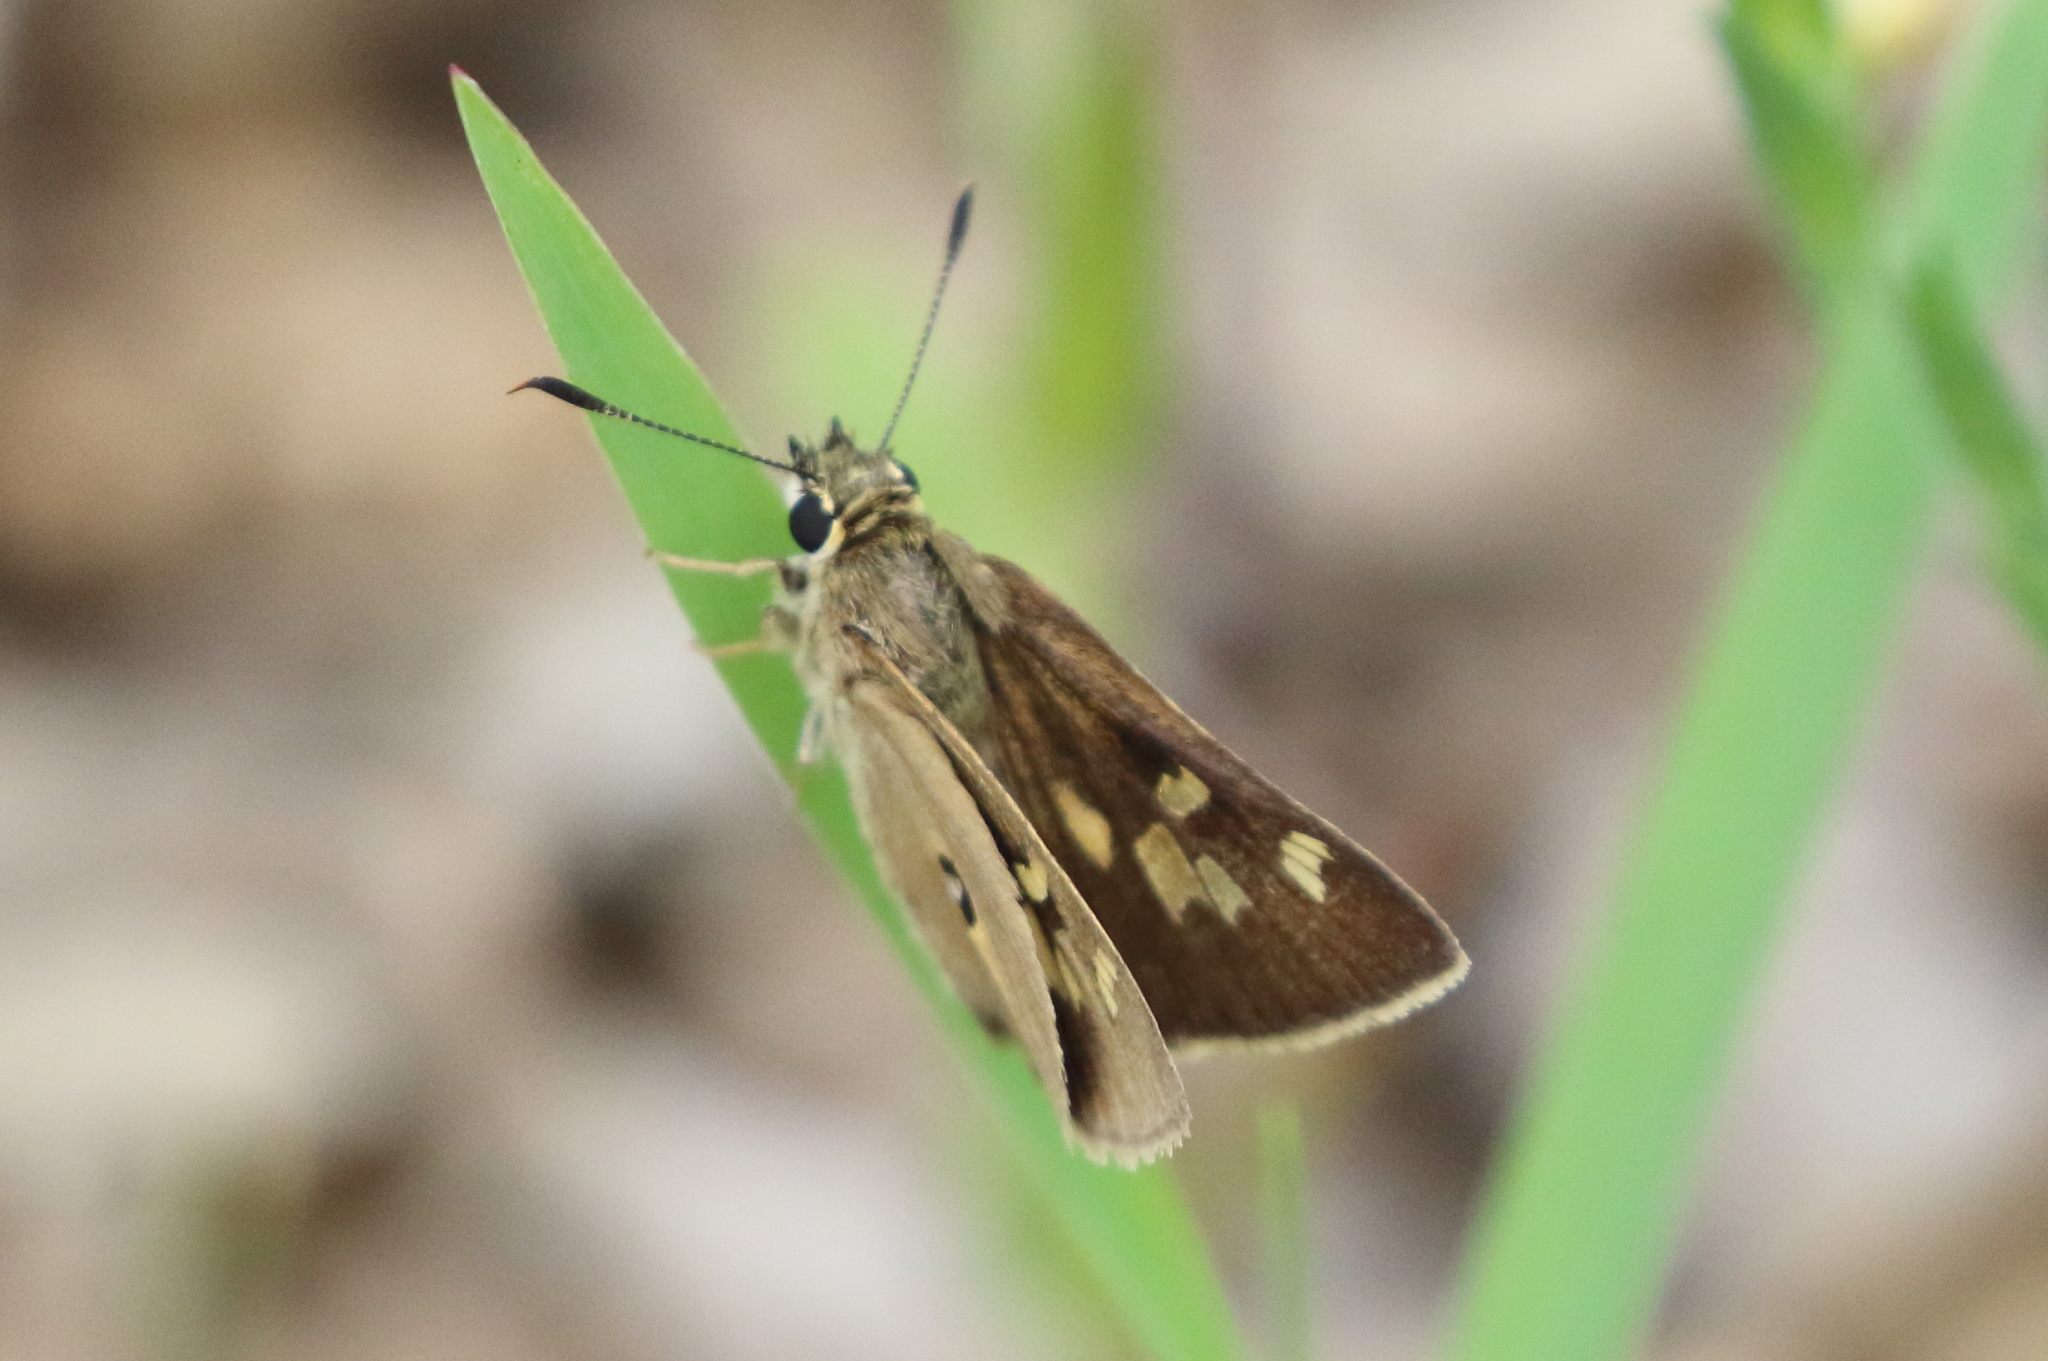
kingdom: Animalia
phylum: Arthropoda
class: Insecta
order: Lepidoptera
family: Hesperiidae
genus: Trapezites
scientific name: Trapezites petalia
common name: Black-ringed ochre
